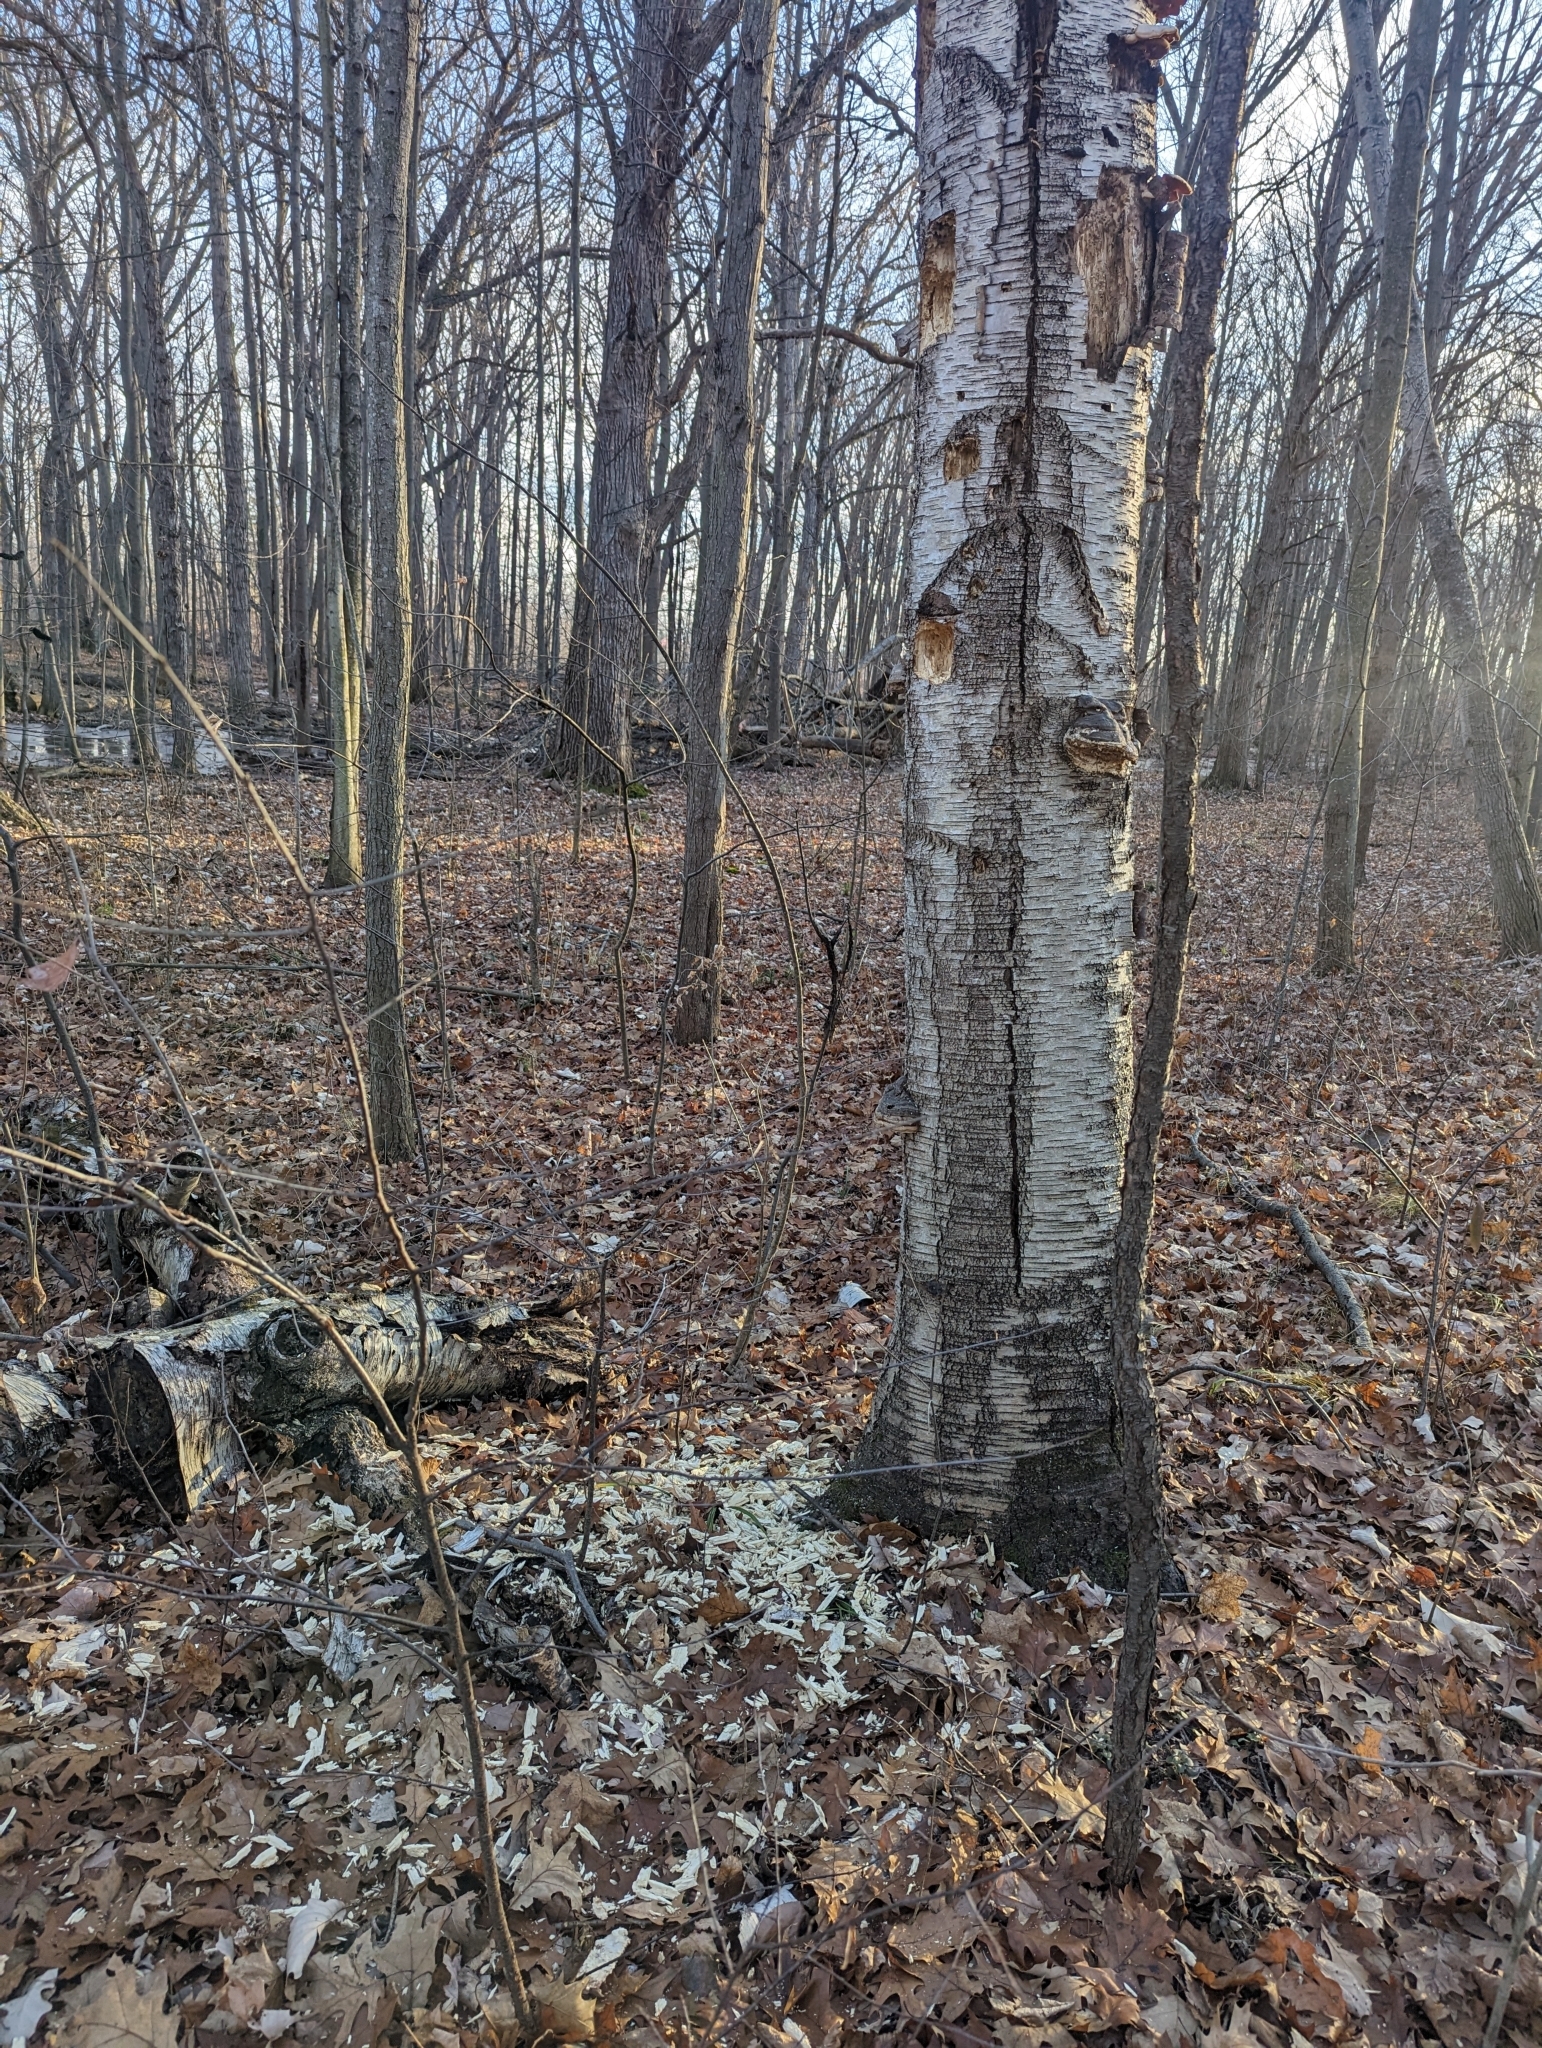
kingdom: Animalia
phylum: Chordata
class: Aves
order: Piciformes
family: Picidae
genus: Dryocopus
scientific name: Dryocopus pileatus
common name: Pileated woodpecker
